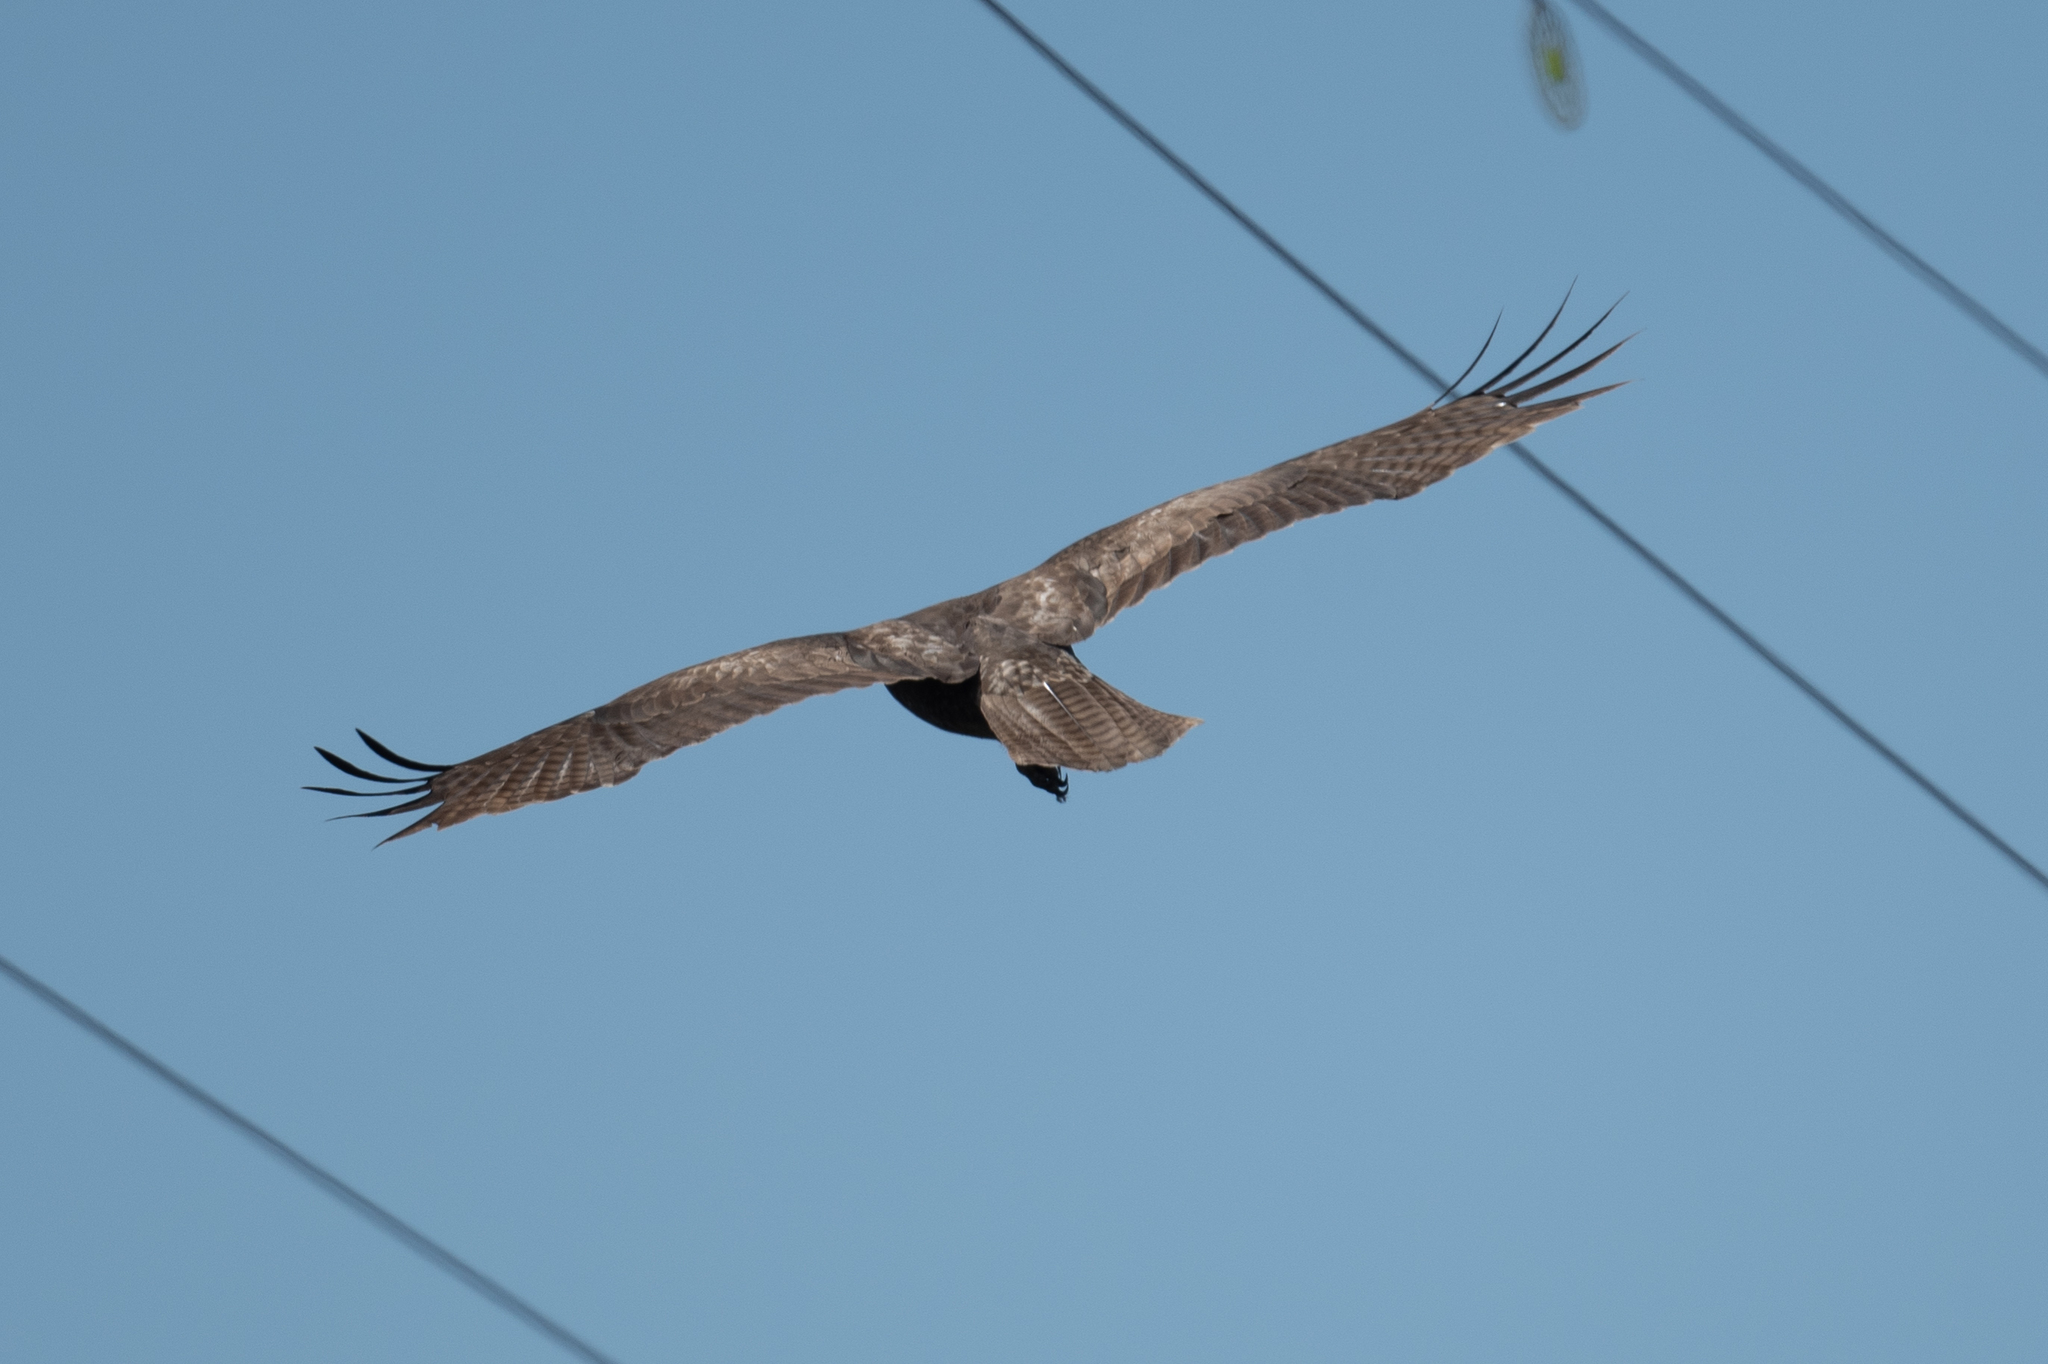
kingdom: Animalia
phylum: Chordata
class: Aves
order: Accipitriformes
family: Accipitridae
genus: Buteo
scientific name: Buteo jamaicensis
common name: Red-tailed hawk
